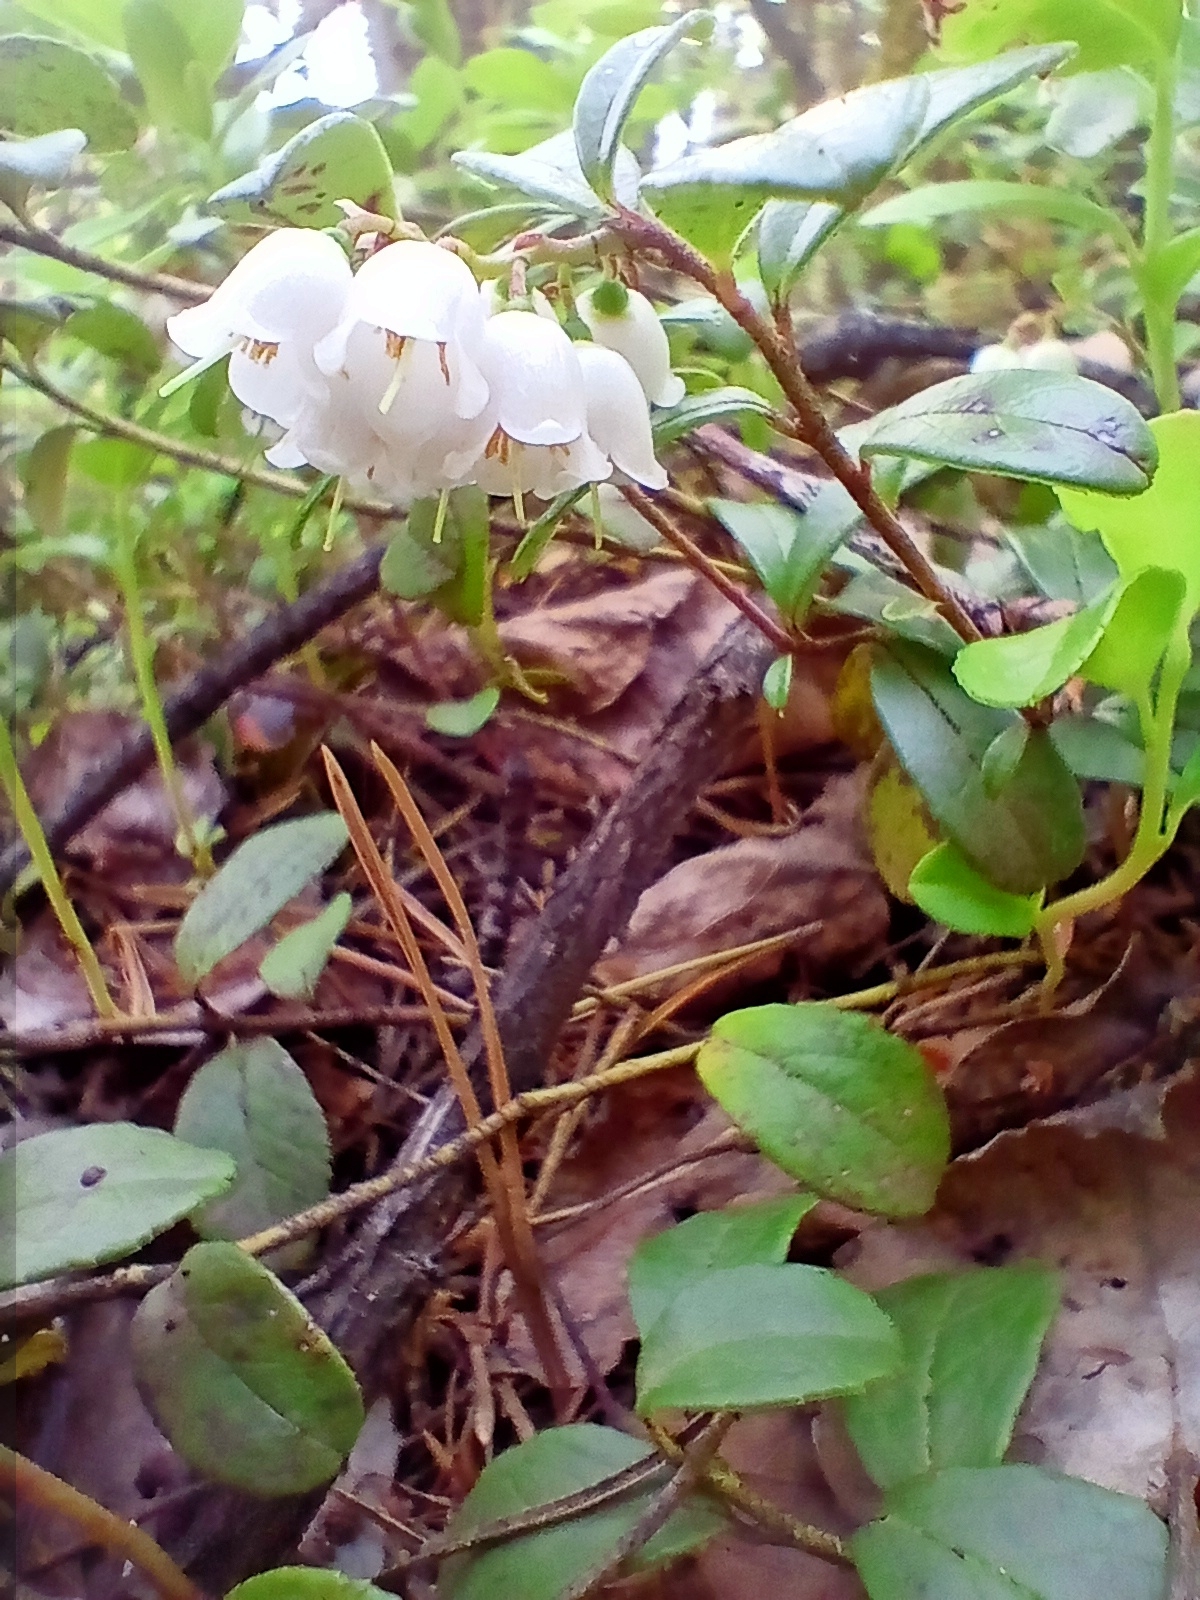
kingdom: Plantae
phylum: Tracheophyta
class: Magnoliopsida
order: Ericales
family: Ericaceae
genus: Vaccinium
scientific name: Vaccinium vitis-idaea
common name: Cowberry
